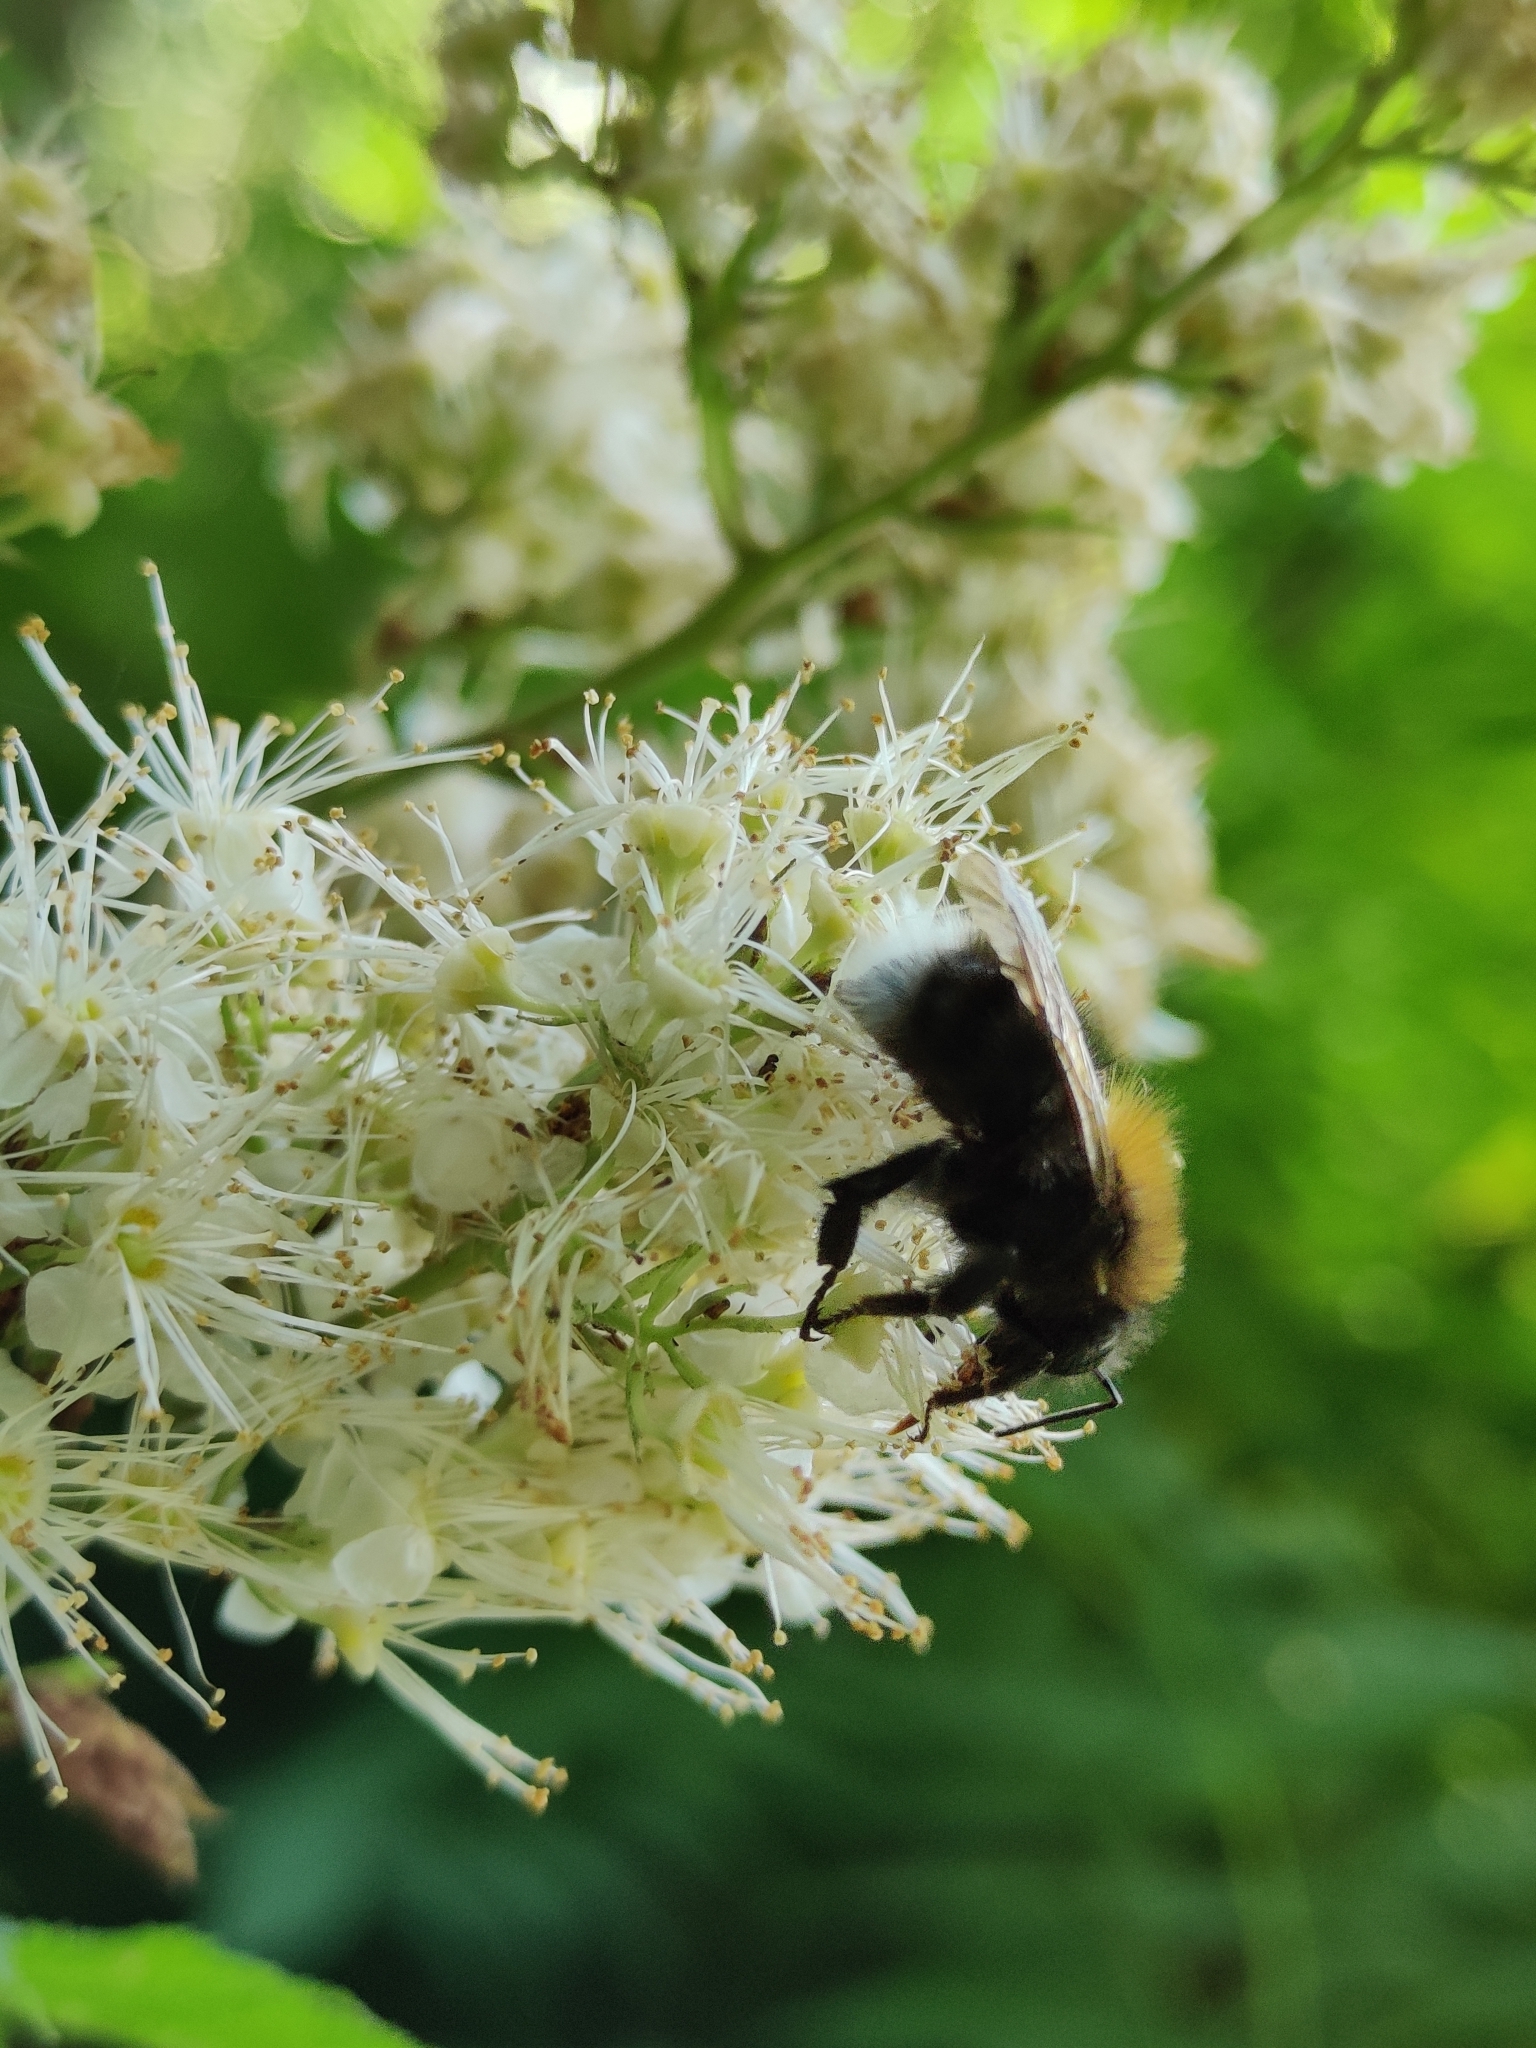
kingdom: Animalia
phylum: Arthropoda
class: Insecta
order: Hymenoptera
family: Apidae
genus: Bombus
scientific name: Bombus hypnorum
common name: New garden bumblebee
